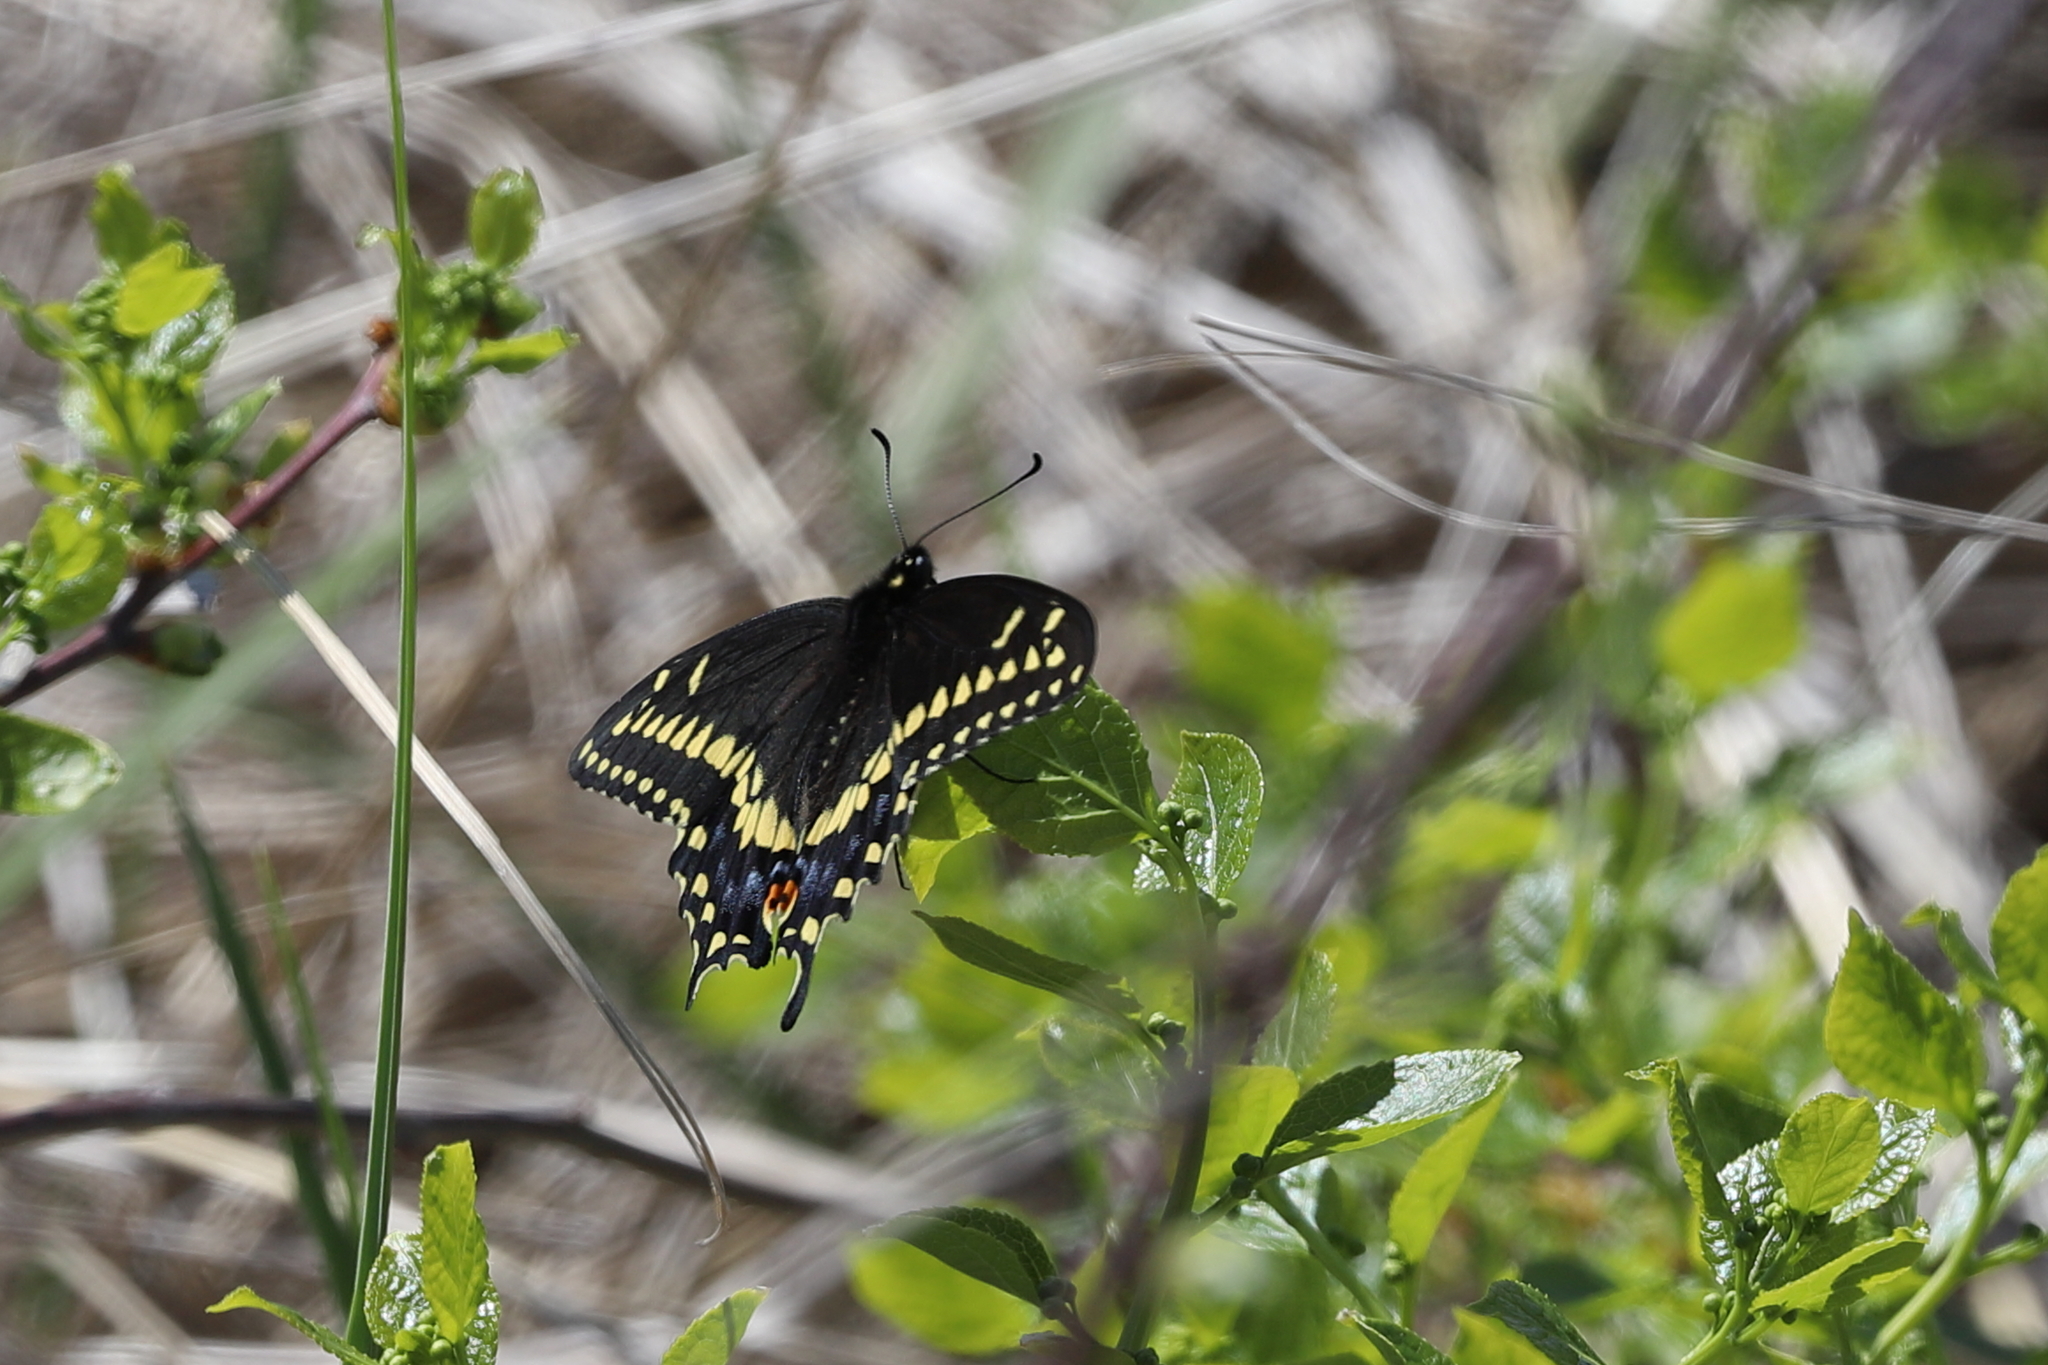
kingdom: Animalia
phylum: Arthropoda
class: Insecta
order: Lepidoptera
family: Papilionidae
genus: Papilio
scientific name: Papilio polyxenes
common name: Black swallowtail
